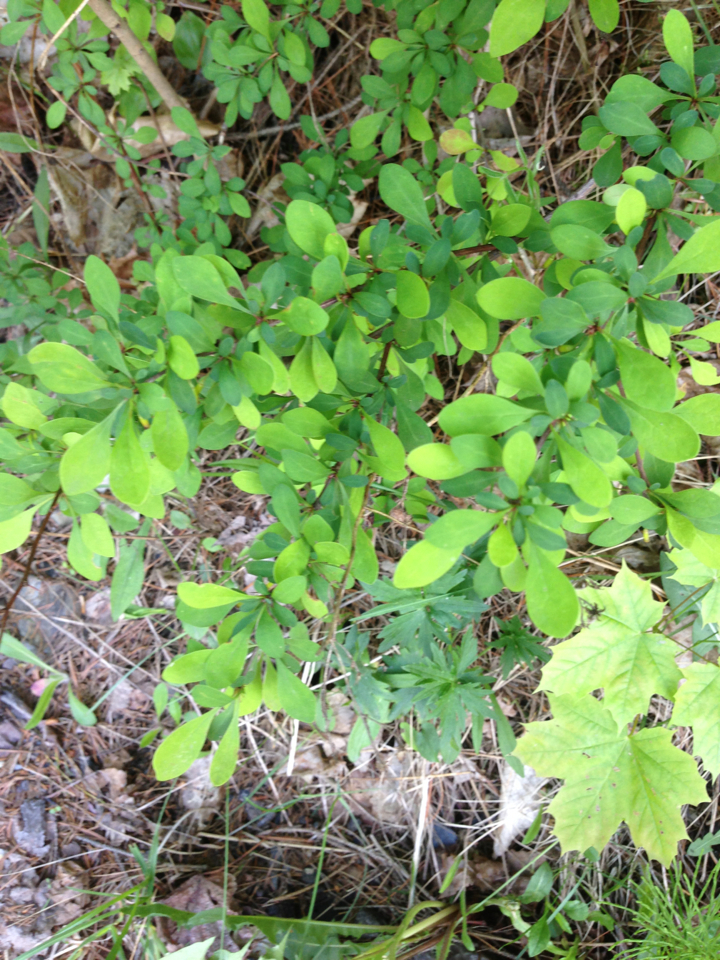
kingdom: Plantae
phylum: Tracheophyta
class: Magnoliopsida
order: Ranunculales
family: Berberidaceae
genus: Berberis
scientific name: Berberis thunbergii
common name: Japanese barberry
